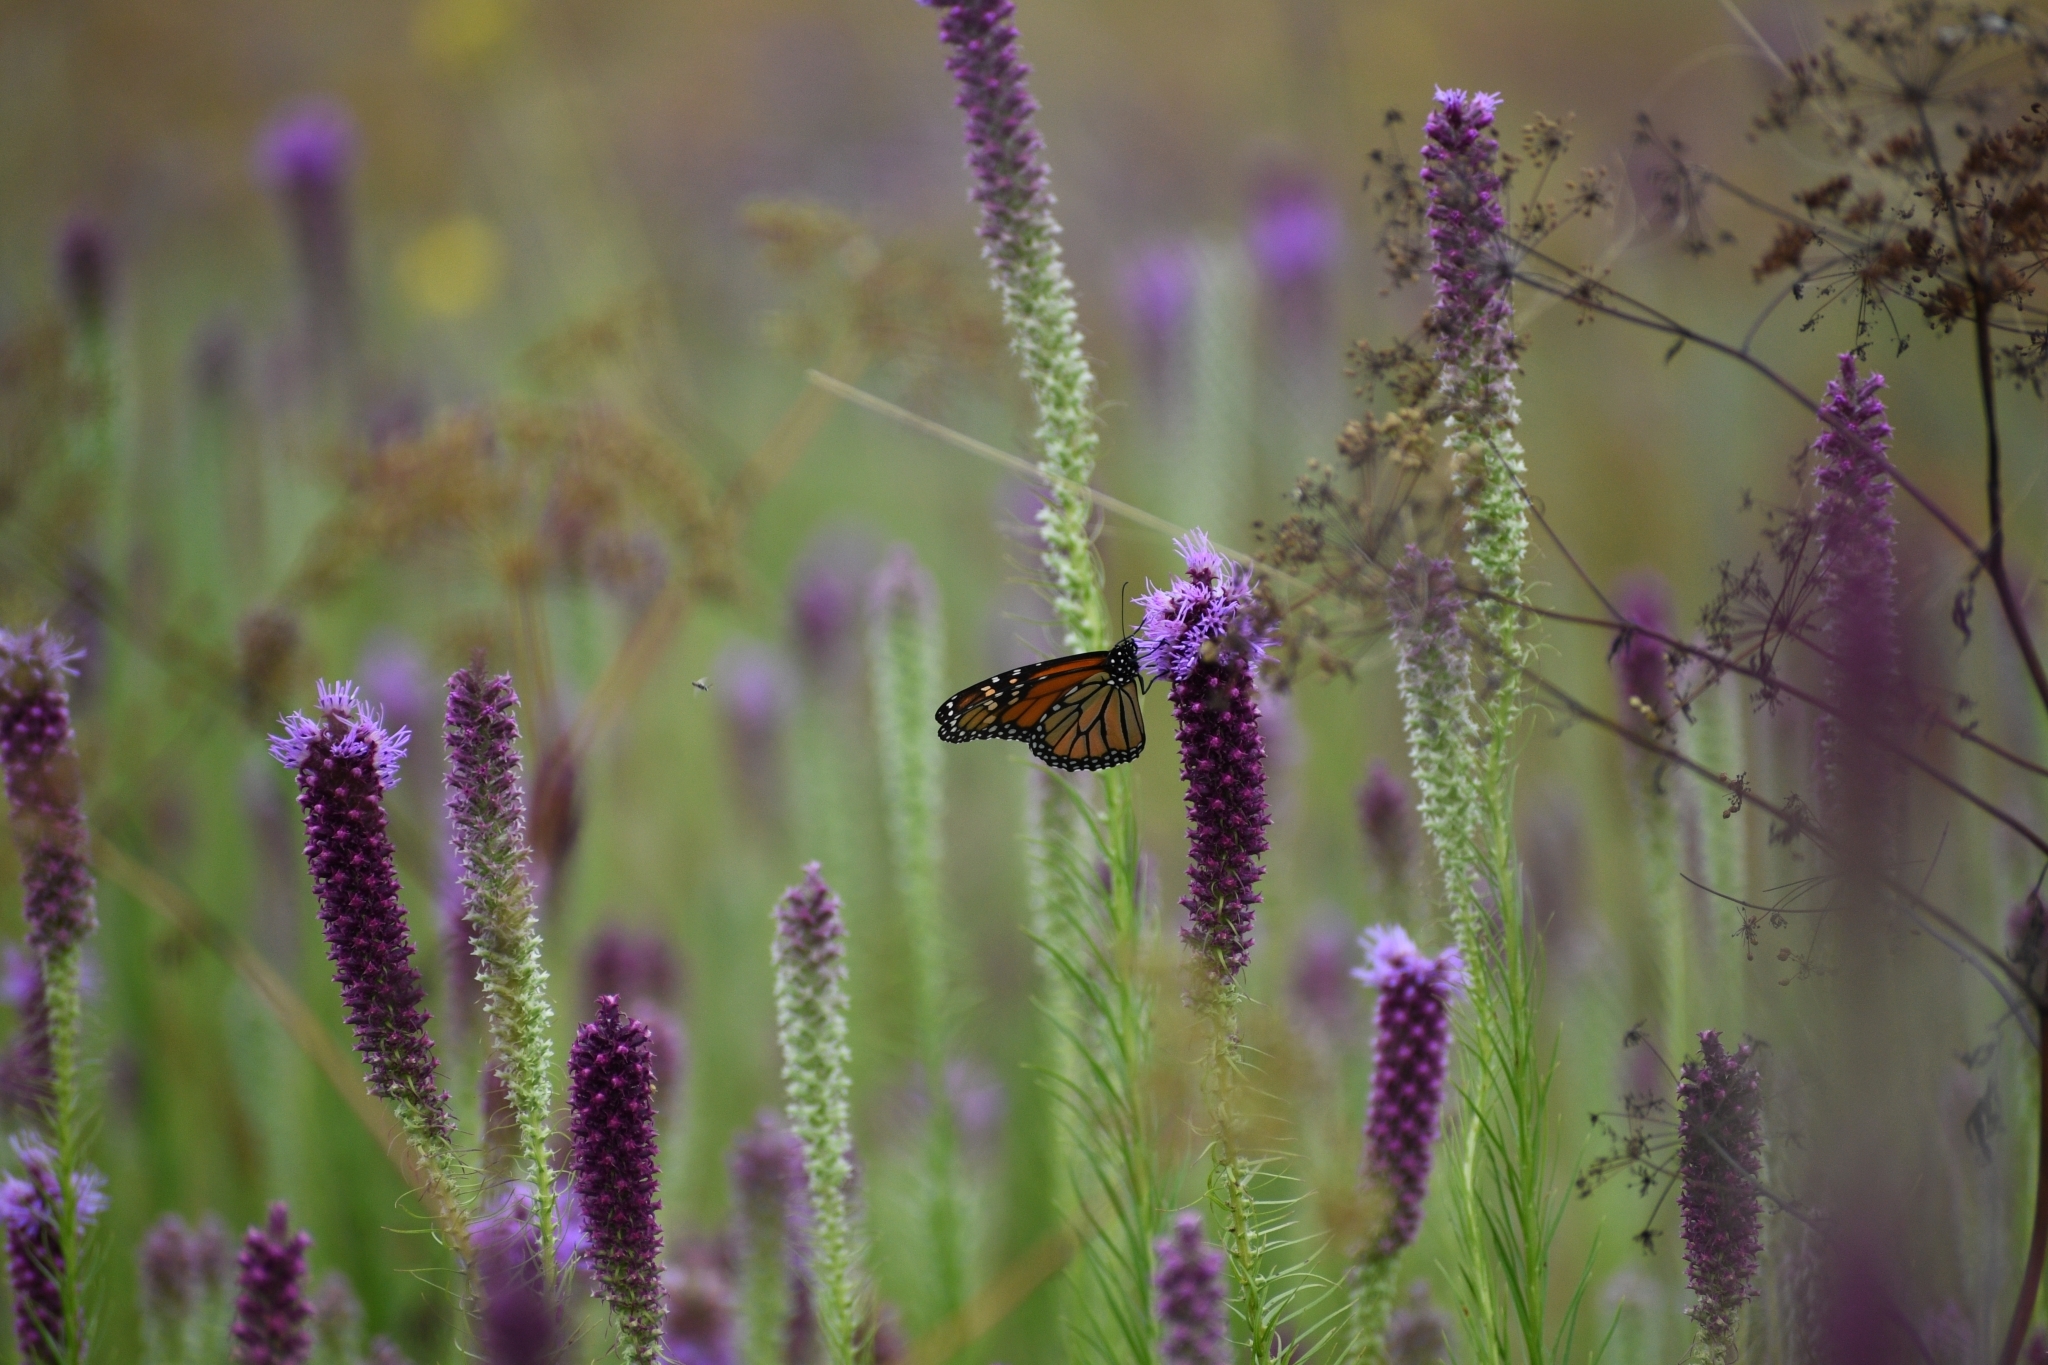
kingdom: Animalia
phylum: Arthropoda
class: Insecta
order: Lepidoptera
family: Nymphalidae
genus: Danaus
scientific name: Danaus plexippus
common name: Monarch
